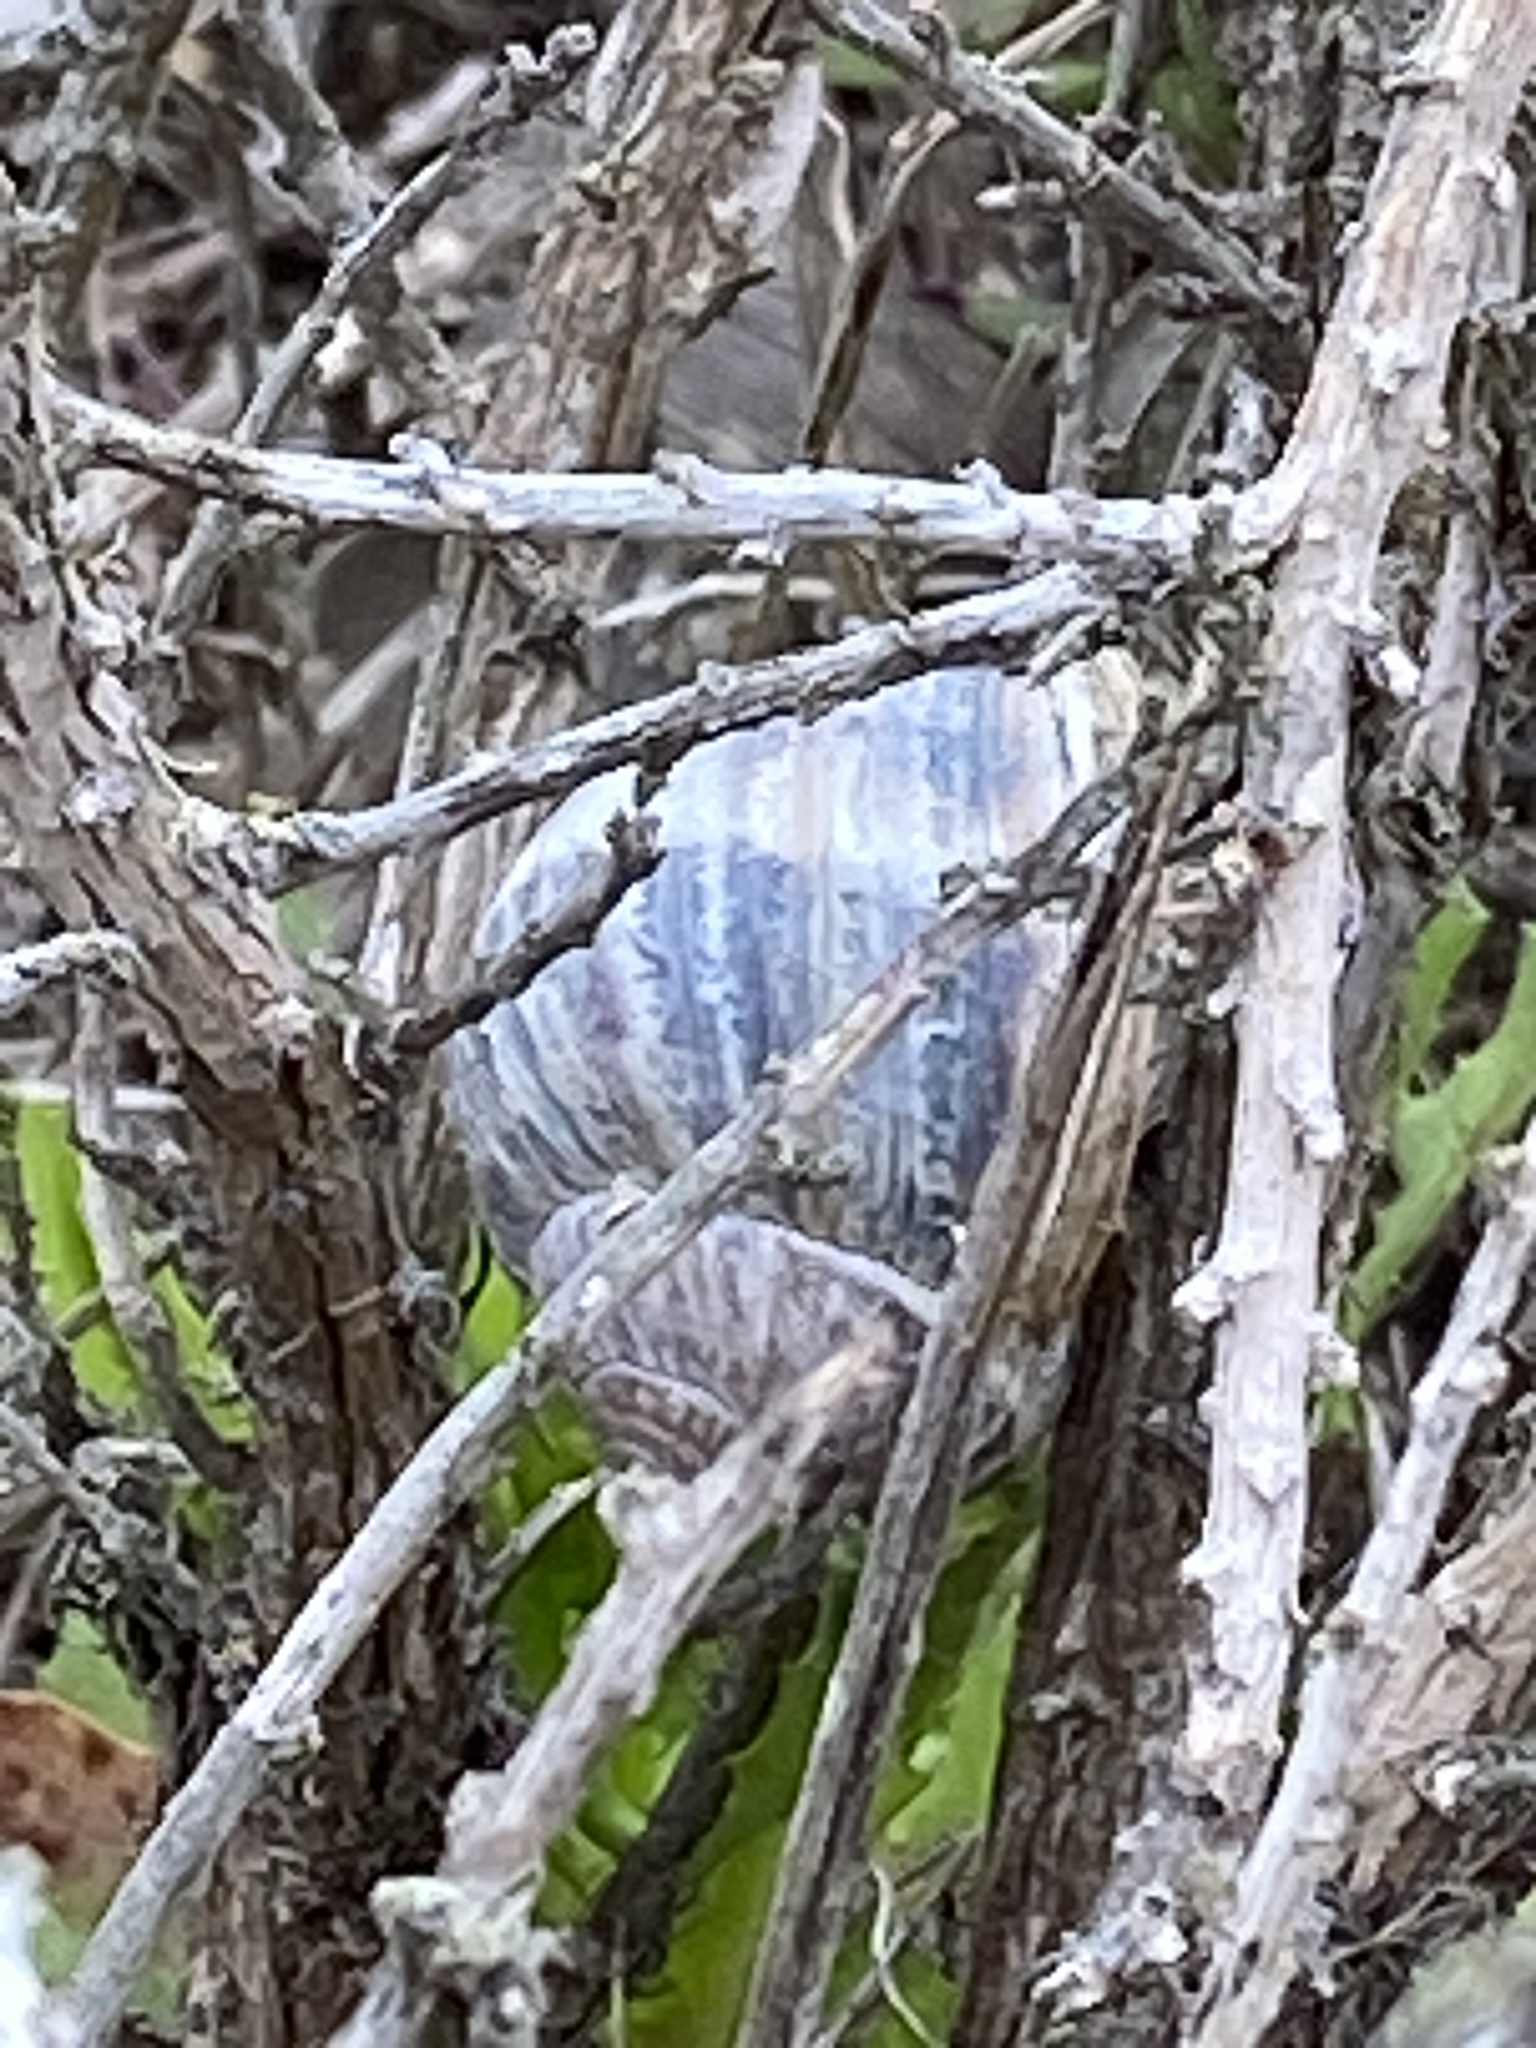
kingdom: Animalia
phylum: Mollusca
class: Gastropoda
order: Stylommatophora
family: Helicidae
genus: Cornu
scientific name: Cornu aspersum
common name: Brown garden snail
